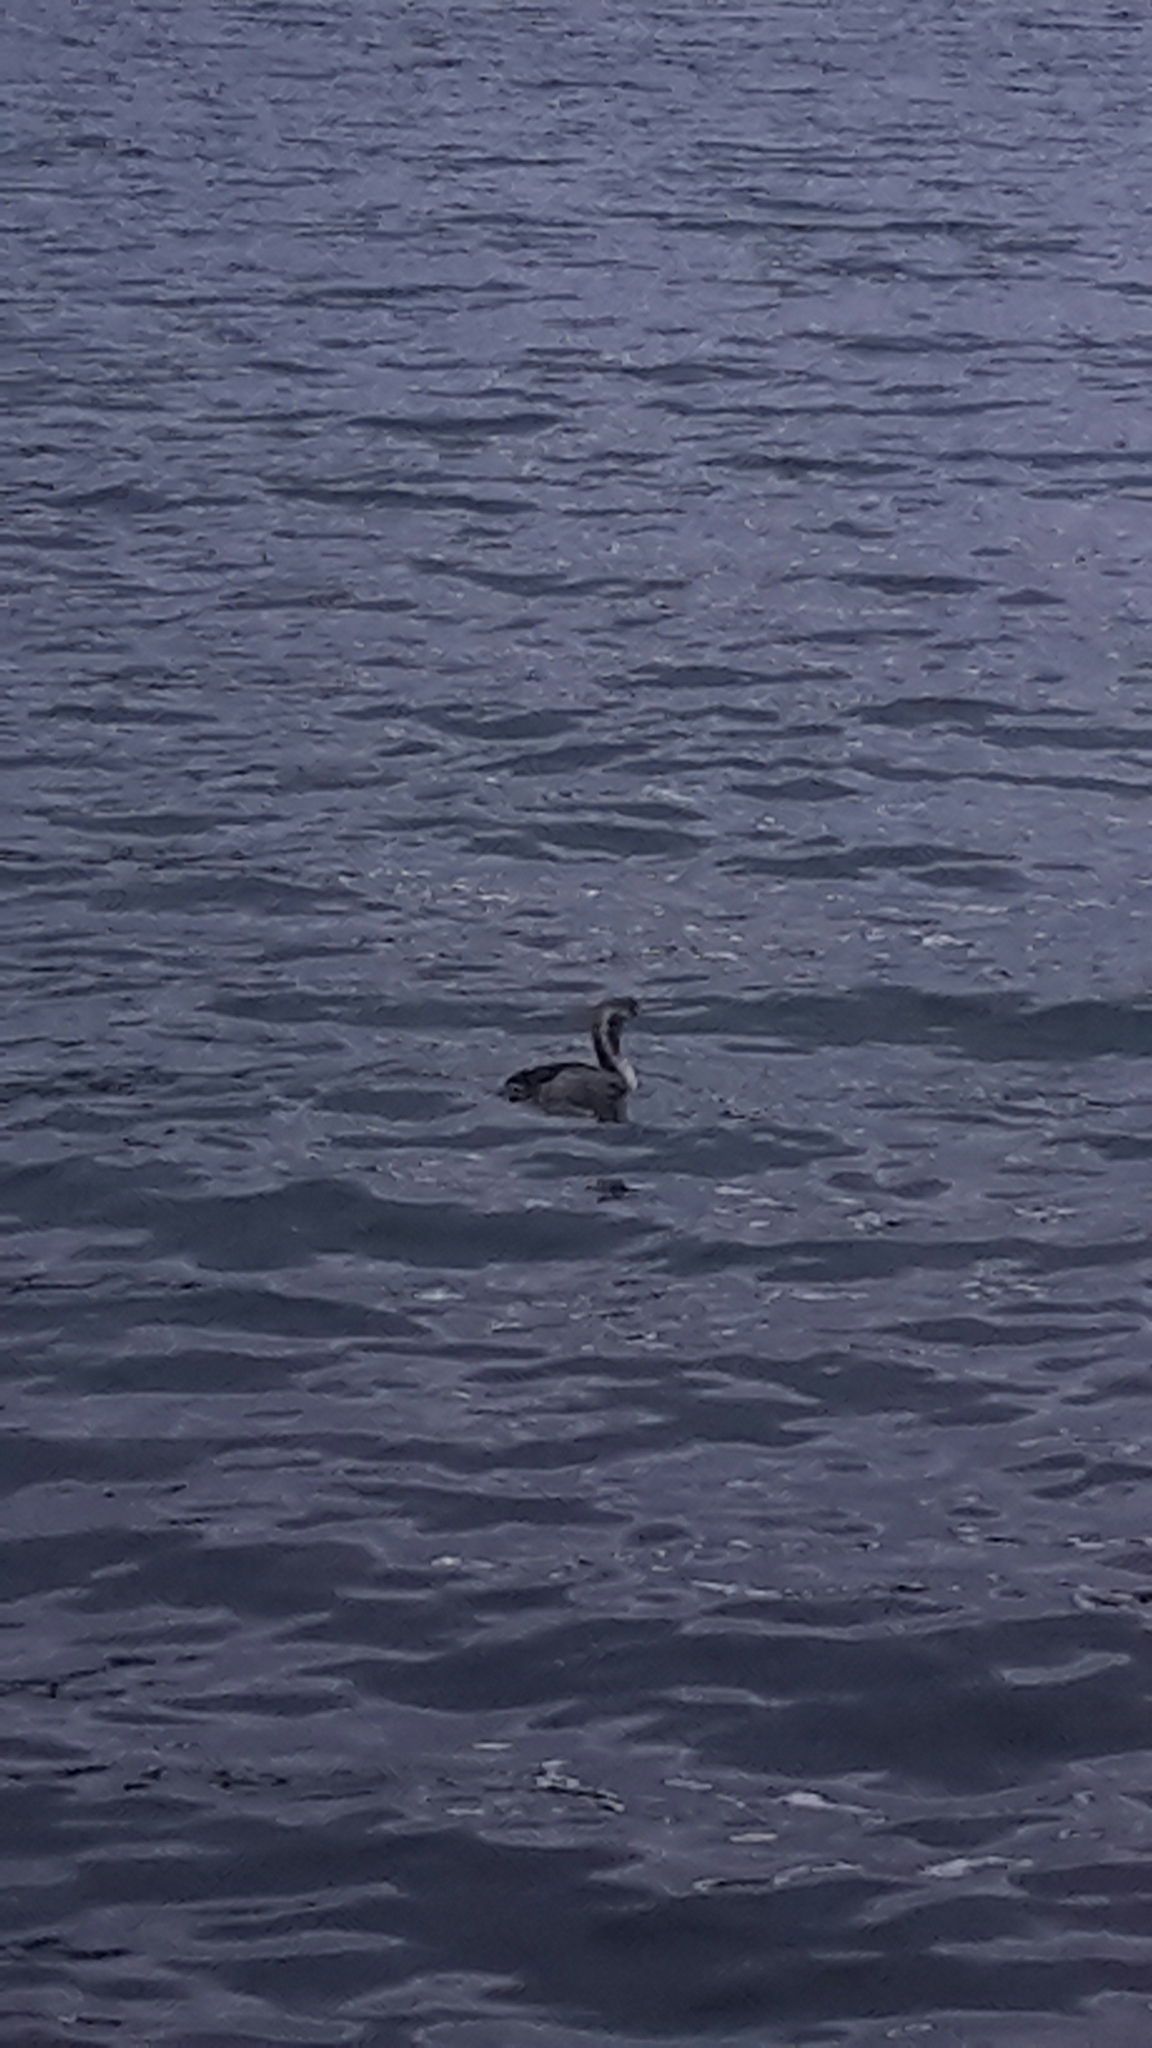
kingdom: Animalia
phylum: Chordata
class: Aves
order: Suliformes
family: Phalacrocoracidae
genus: Phalacrocorax
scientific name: Phalacrocorax punctatus
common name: Spotted shag
